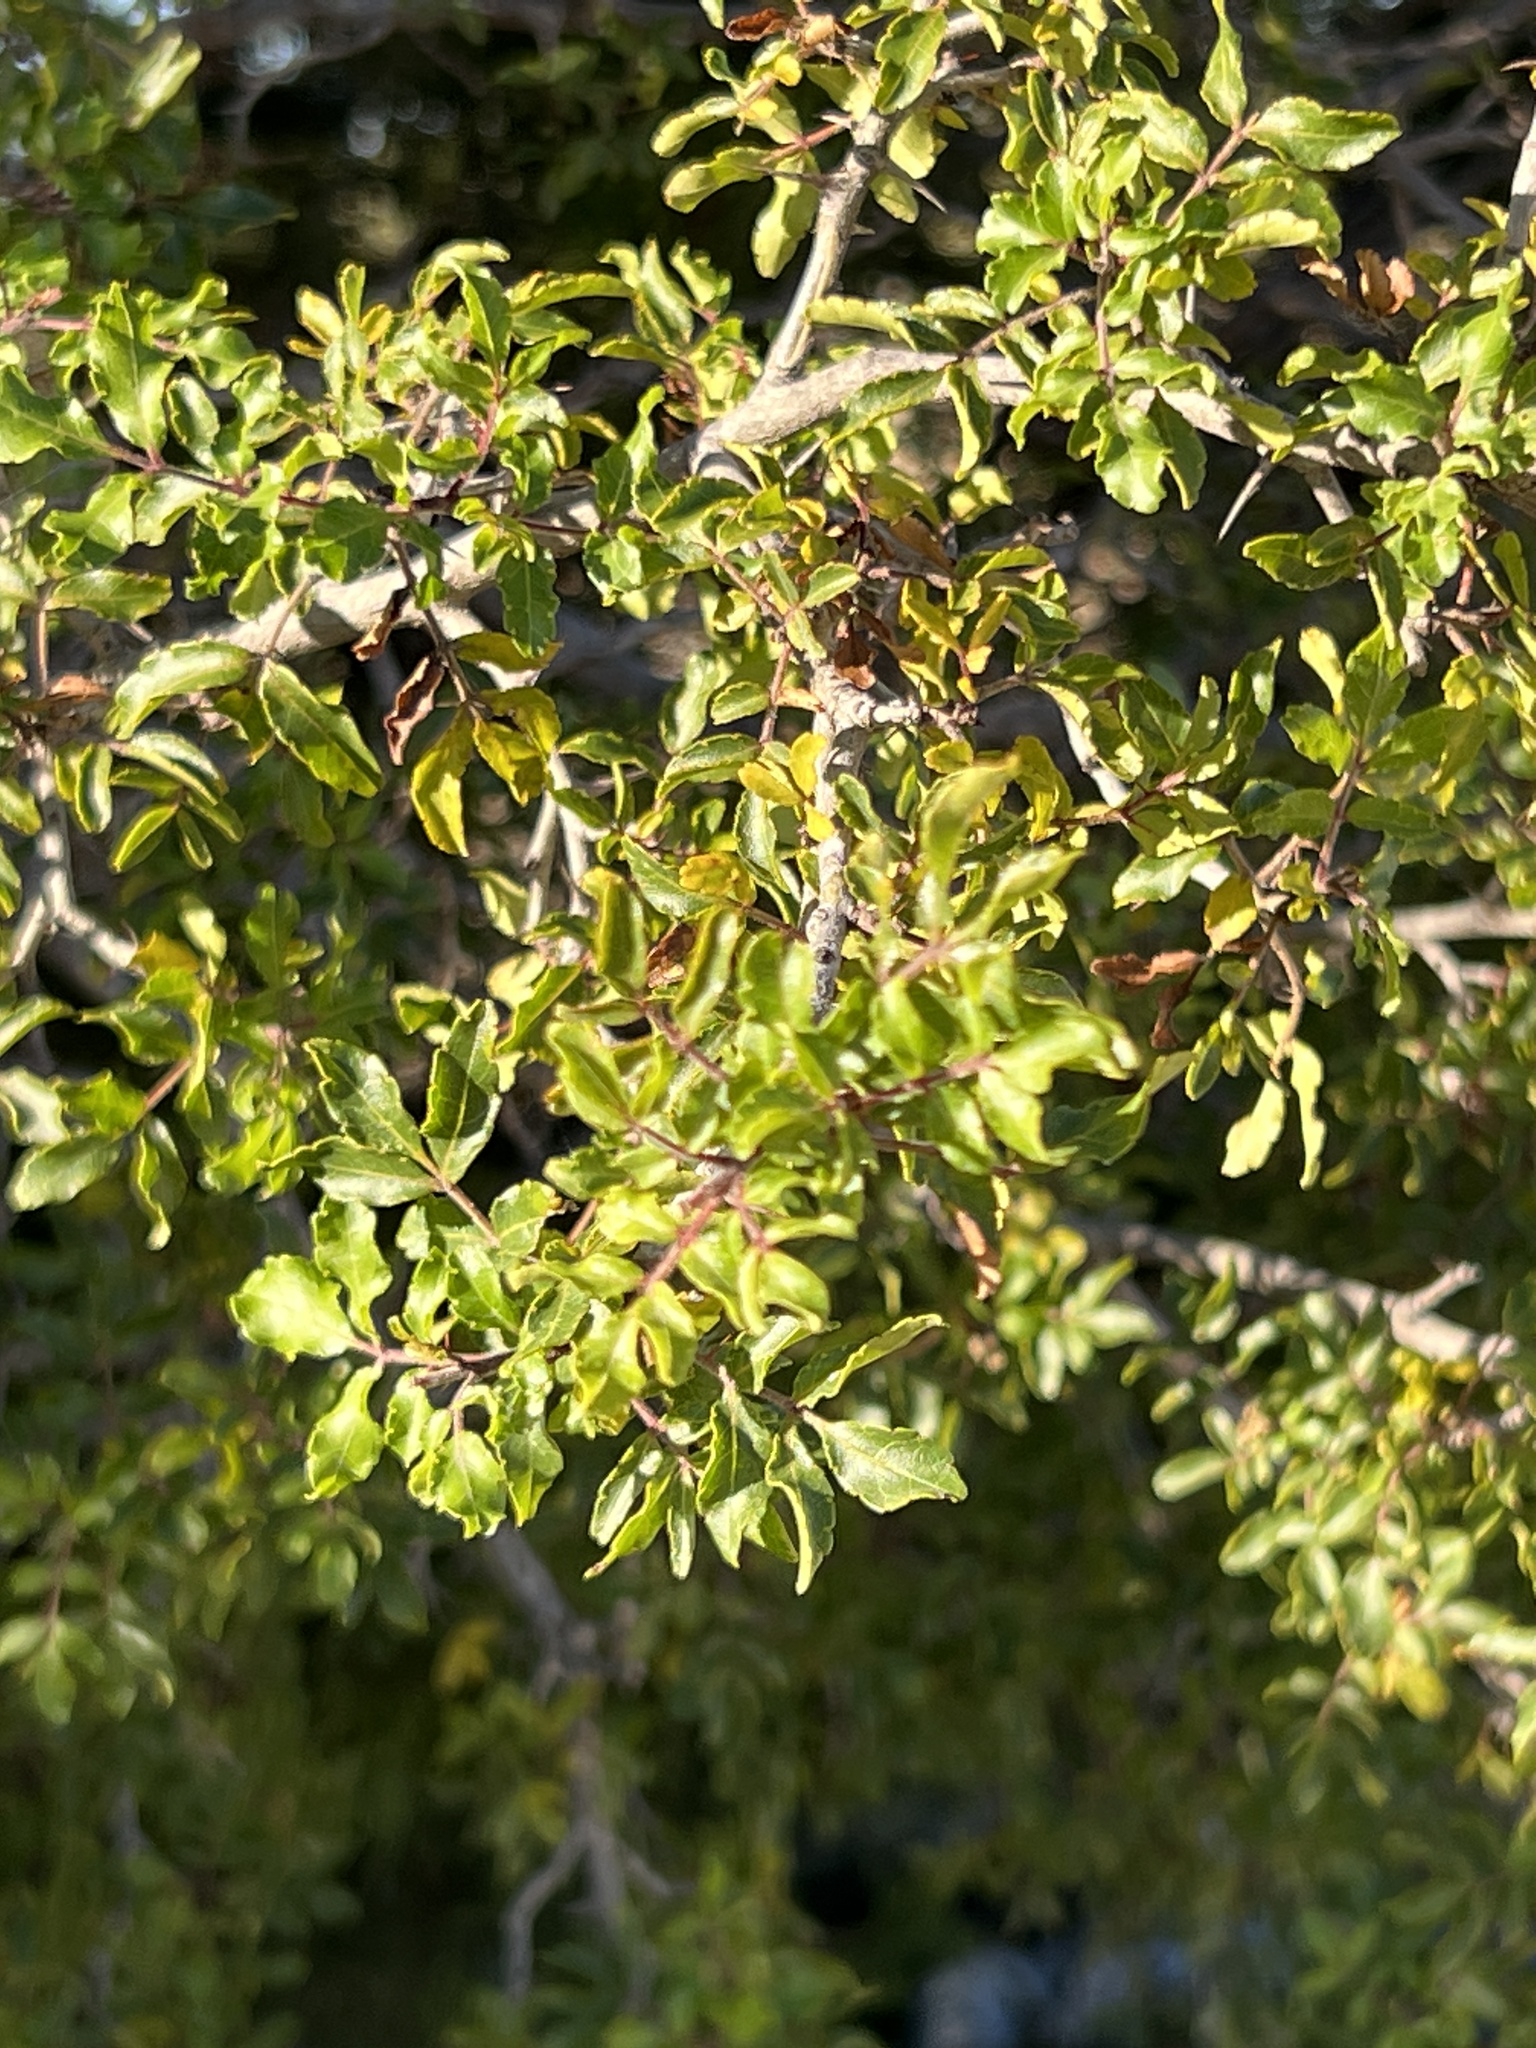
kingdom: Plantae
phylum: Tracheophyta
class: Magnoliopsida
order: Sapindales
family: Rutaceae
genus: Zanthoxylum
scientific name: Zanthoxylum clava-herculis
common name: Hercules'-club
